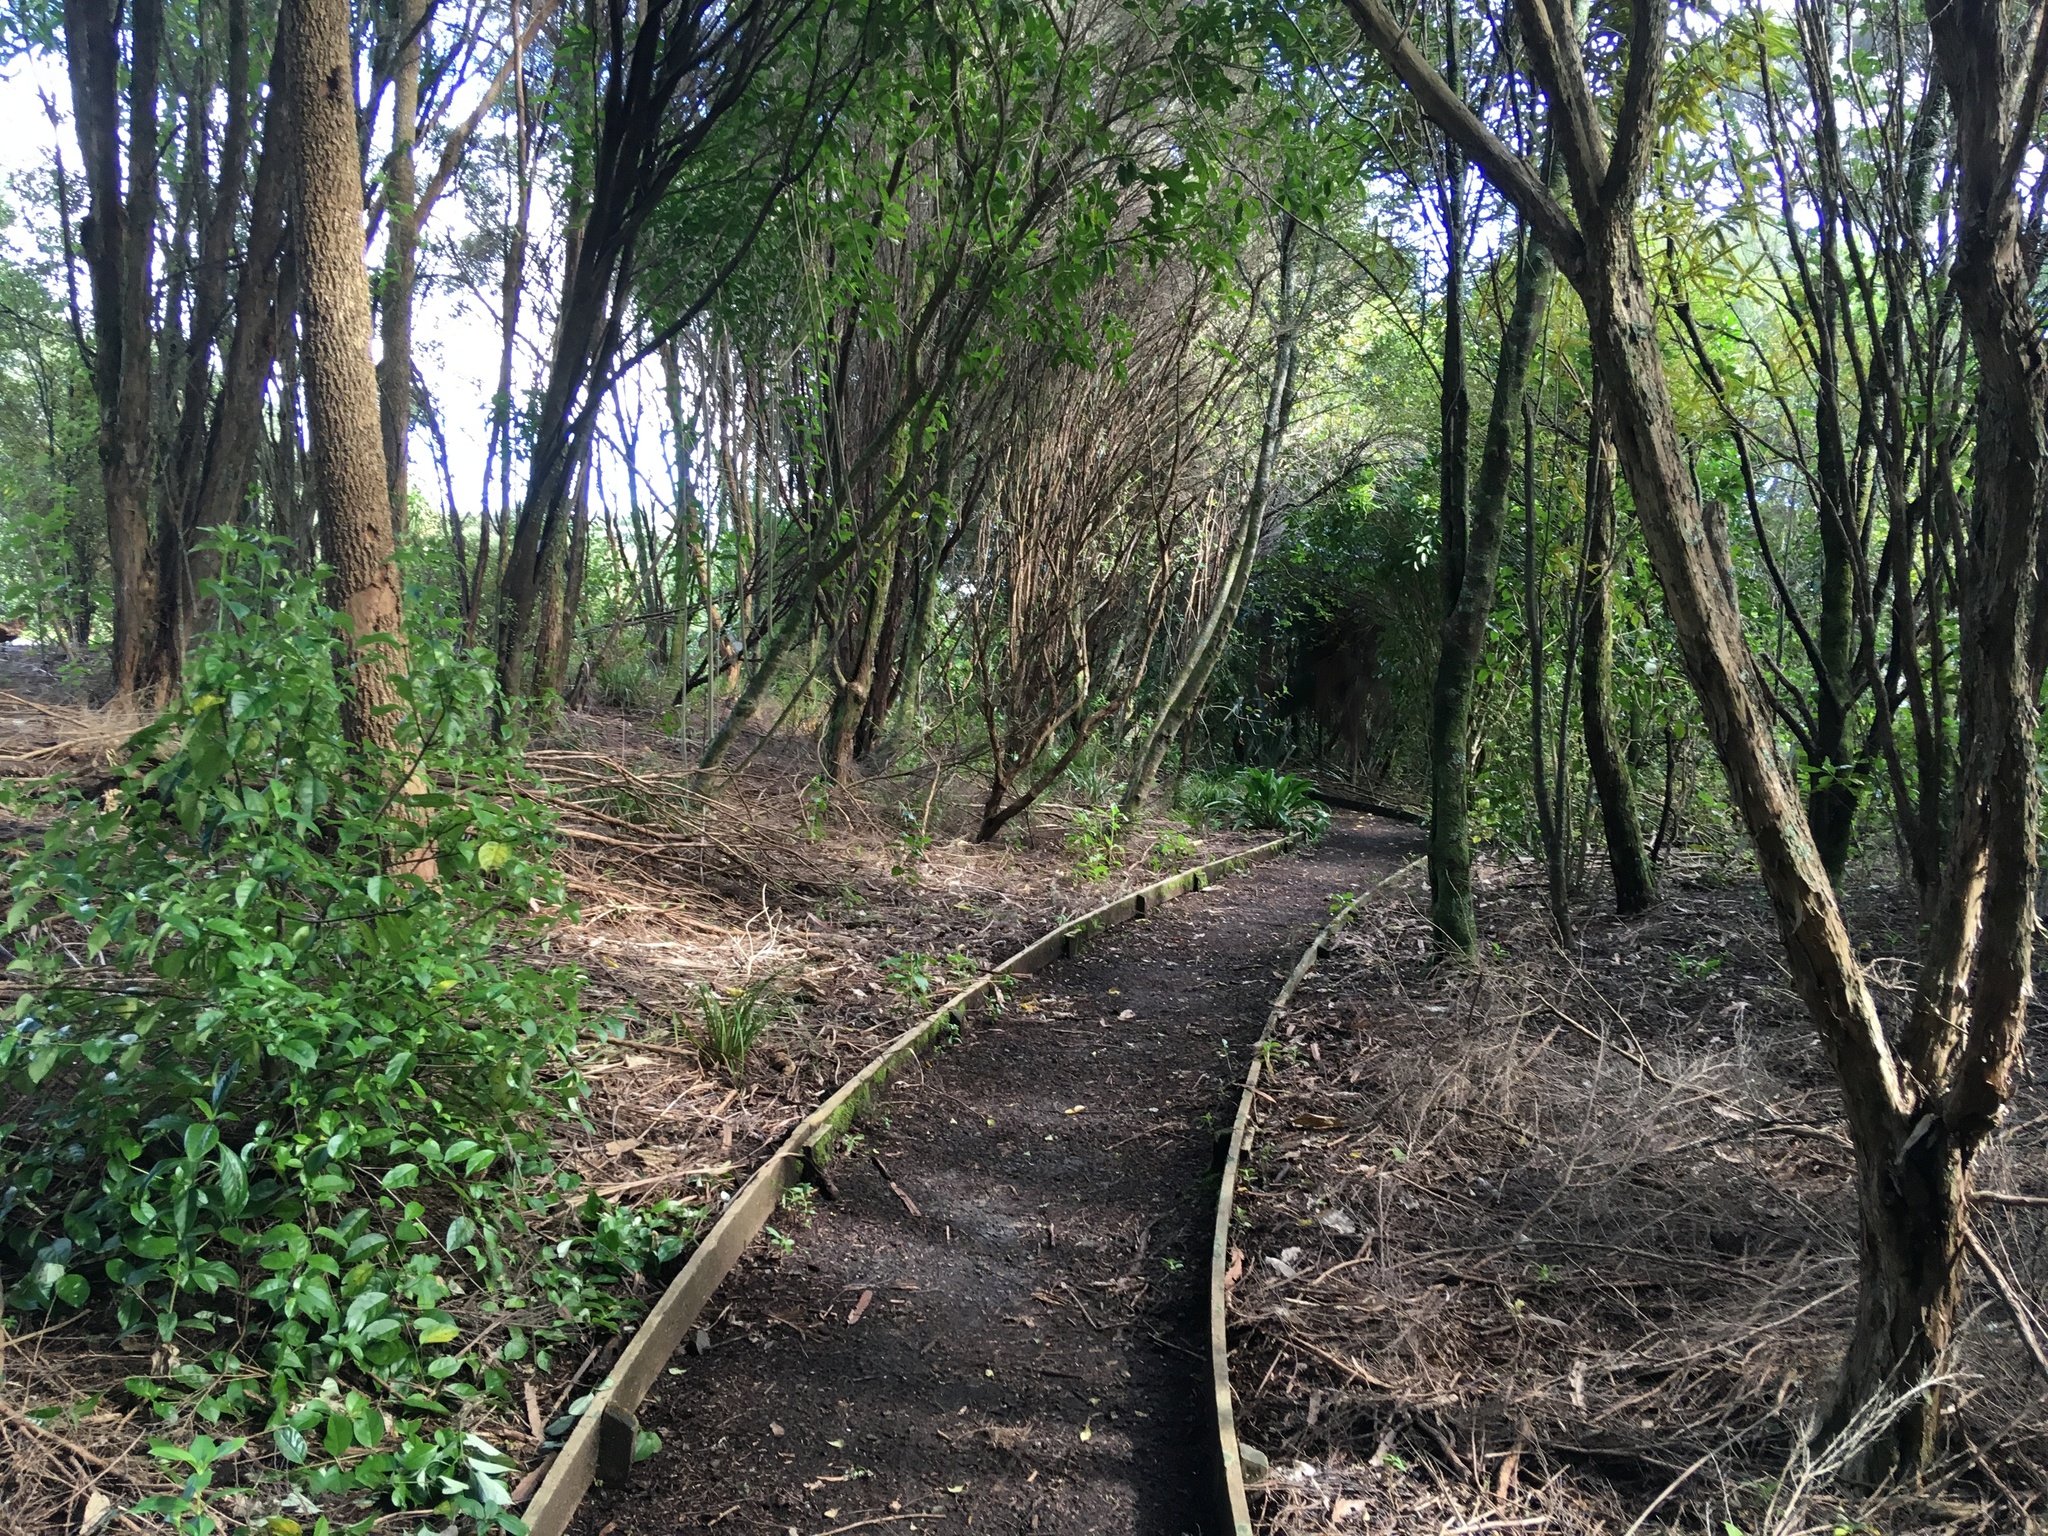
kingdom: Plantae
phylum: Tracheophyta
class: Magnoliopsida
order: Gentianales
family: Loganiaceae
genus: Geniostoma
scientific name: Geniostoma ligustrifolium
